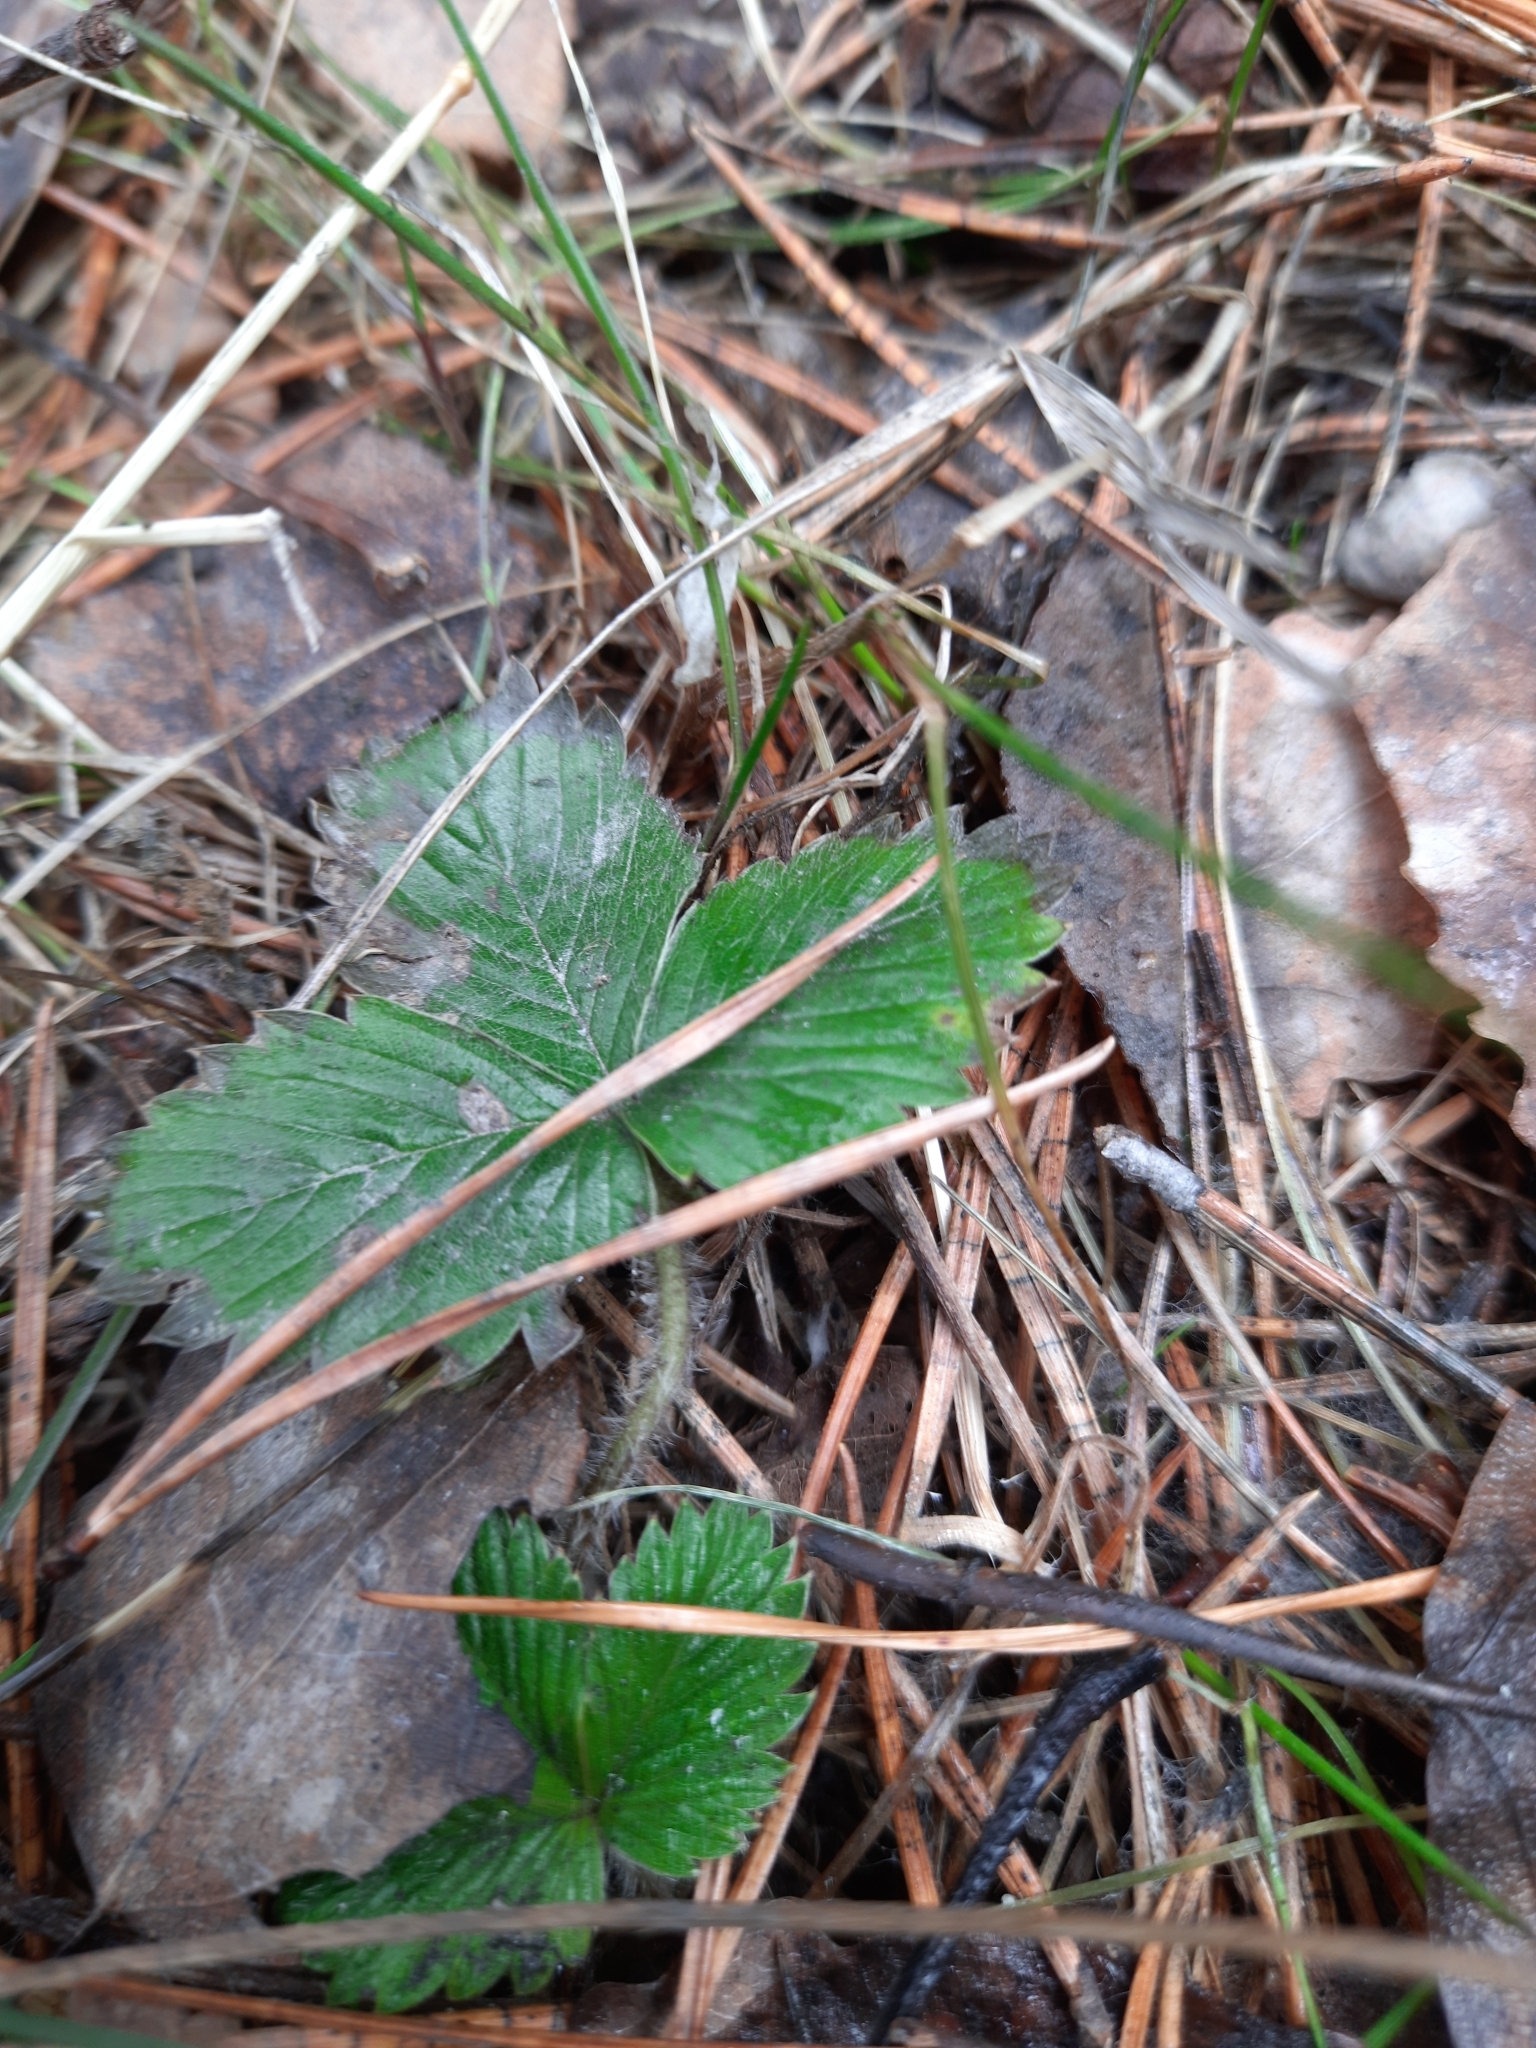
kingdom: Plantae
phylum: Tracheophyta
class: Magnoliopsida
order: Rosales
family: Rosaceae
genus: Fragaria
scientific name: Fragaria vesca
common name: Wild strawberry
